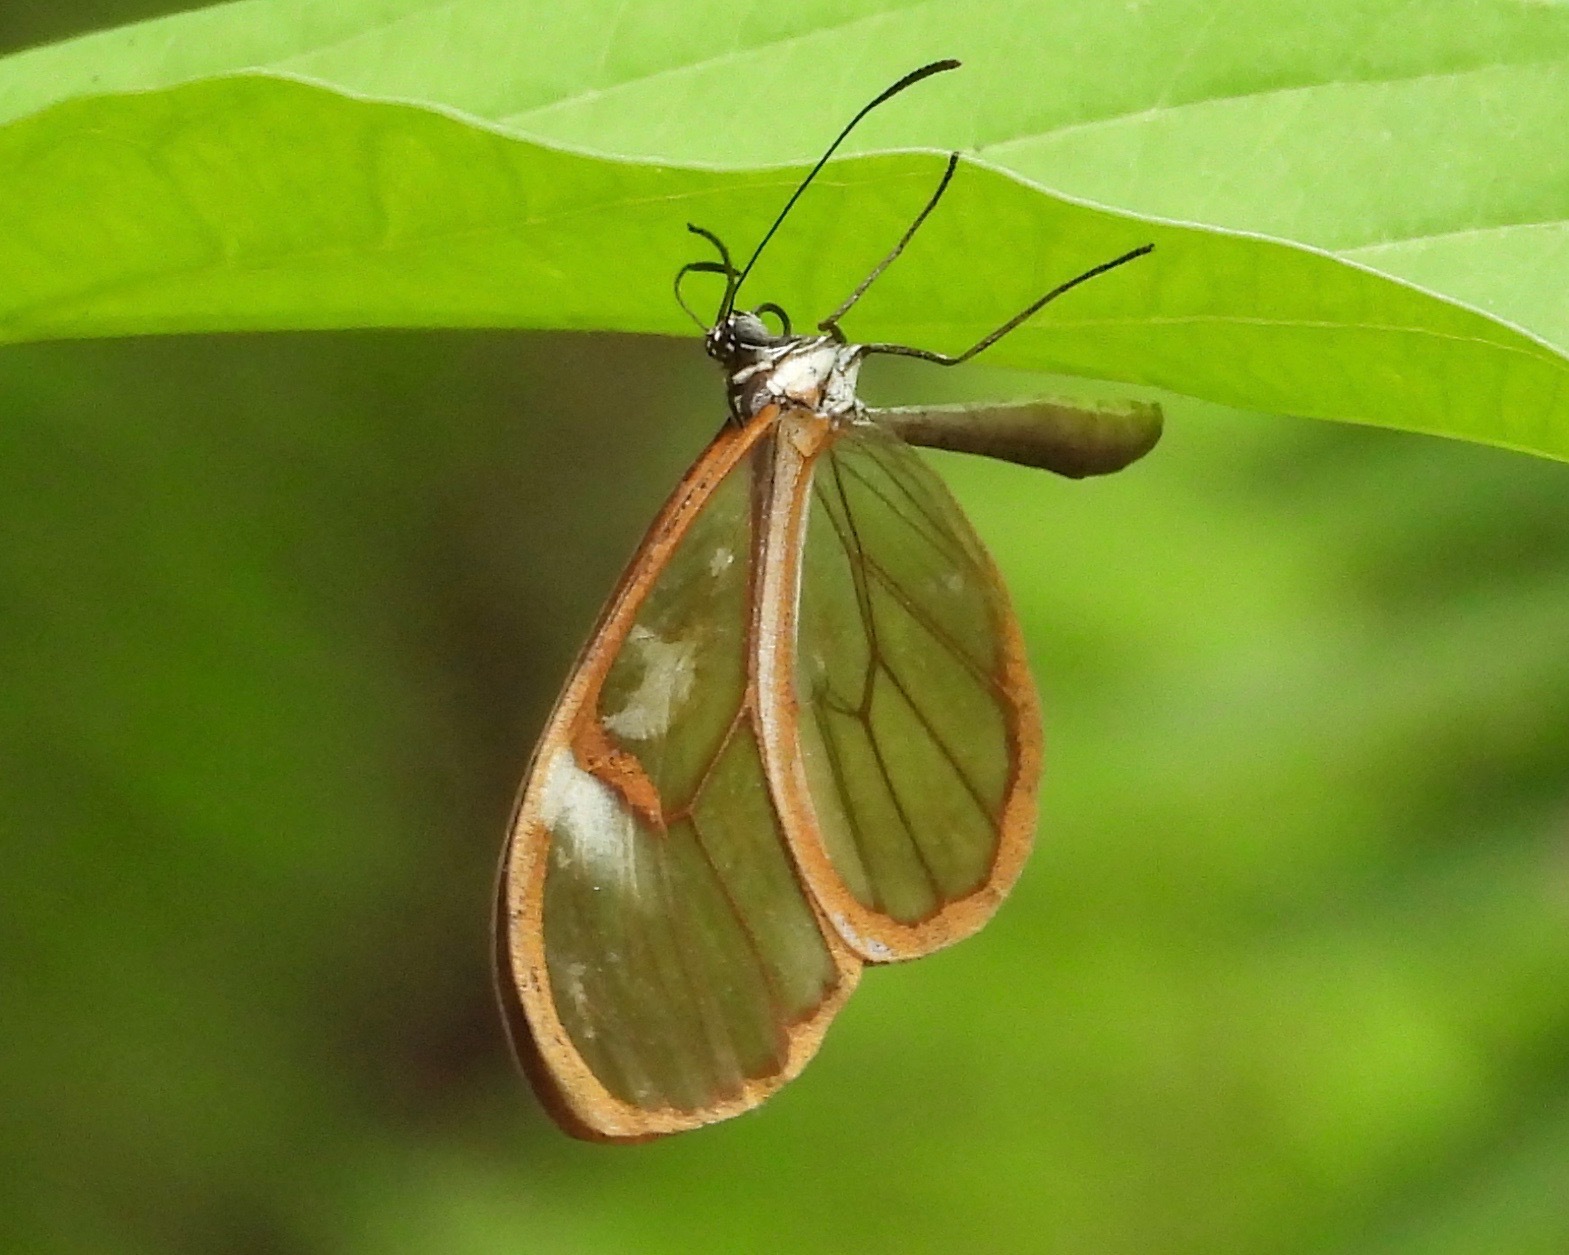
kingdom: Animalia
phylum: Arthropoda
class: Insecta
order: Lepidoptera
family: Nymphalidae
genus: Episcada
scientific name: Episcada salvinia
